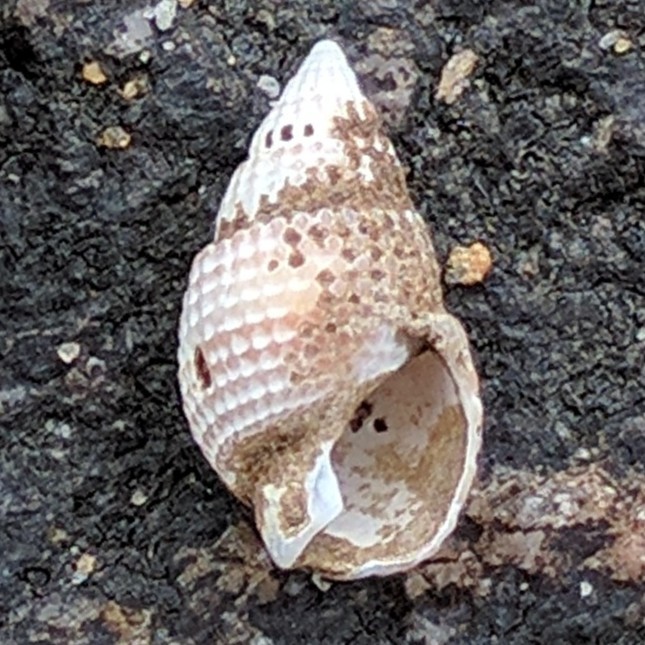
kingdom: Animalia
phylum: Mollusca
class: Gastropoda
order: Neogastropoda
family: Nassariidae
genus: Ilyanassa
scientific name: Ilyanassa trivittata
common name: Three-line mudsnail
